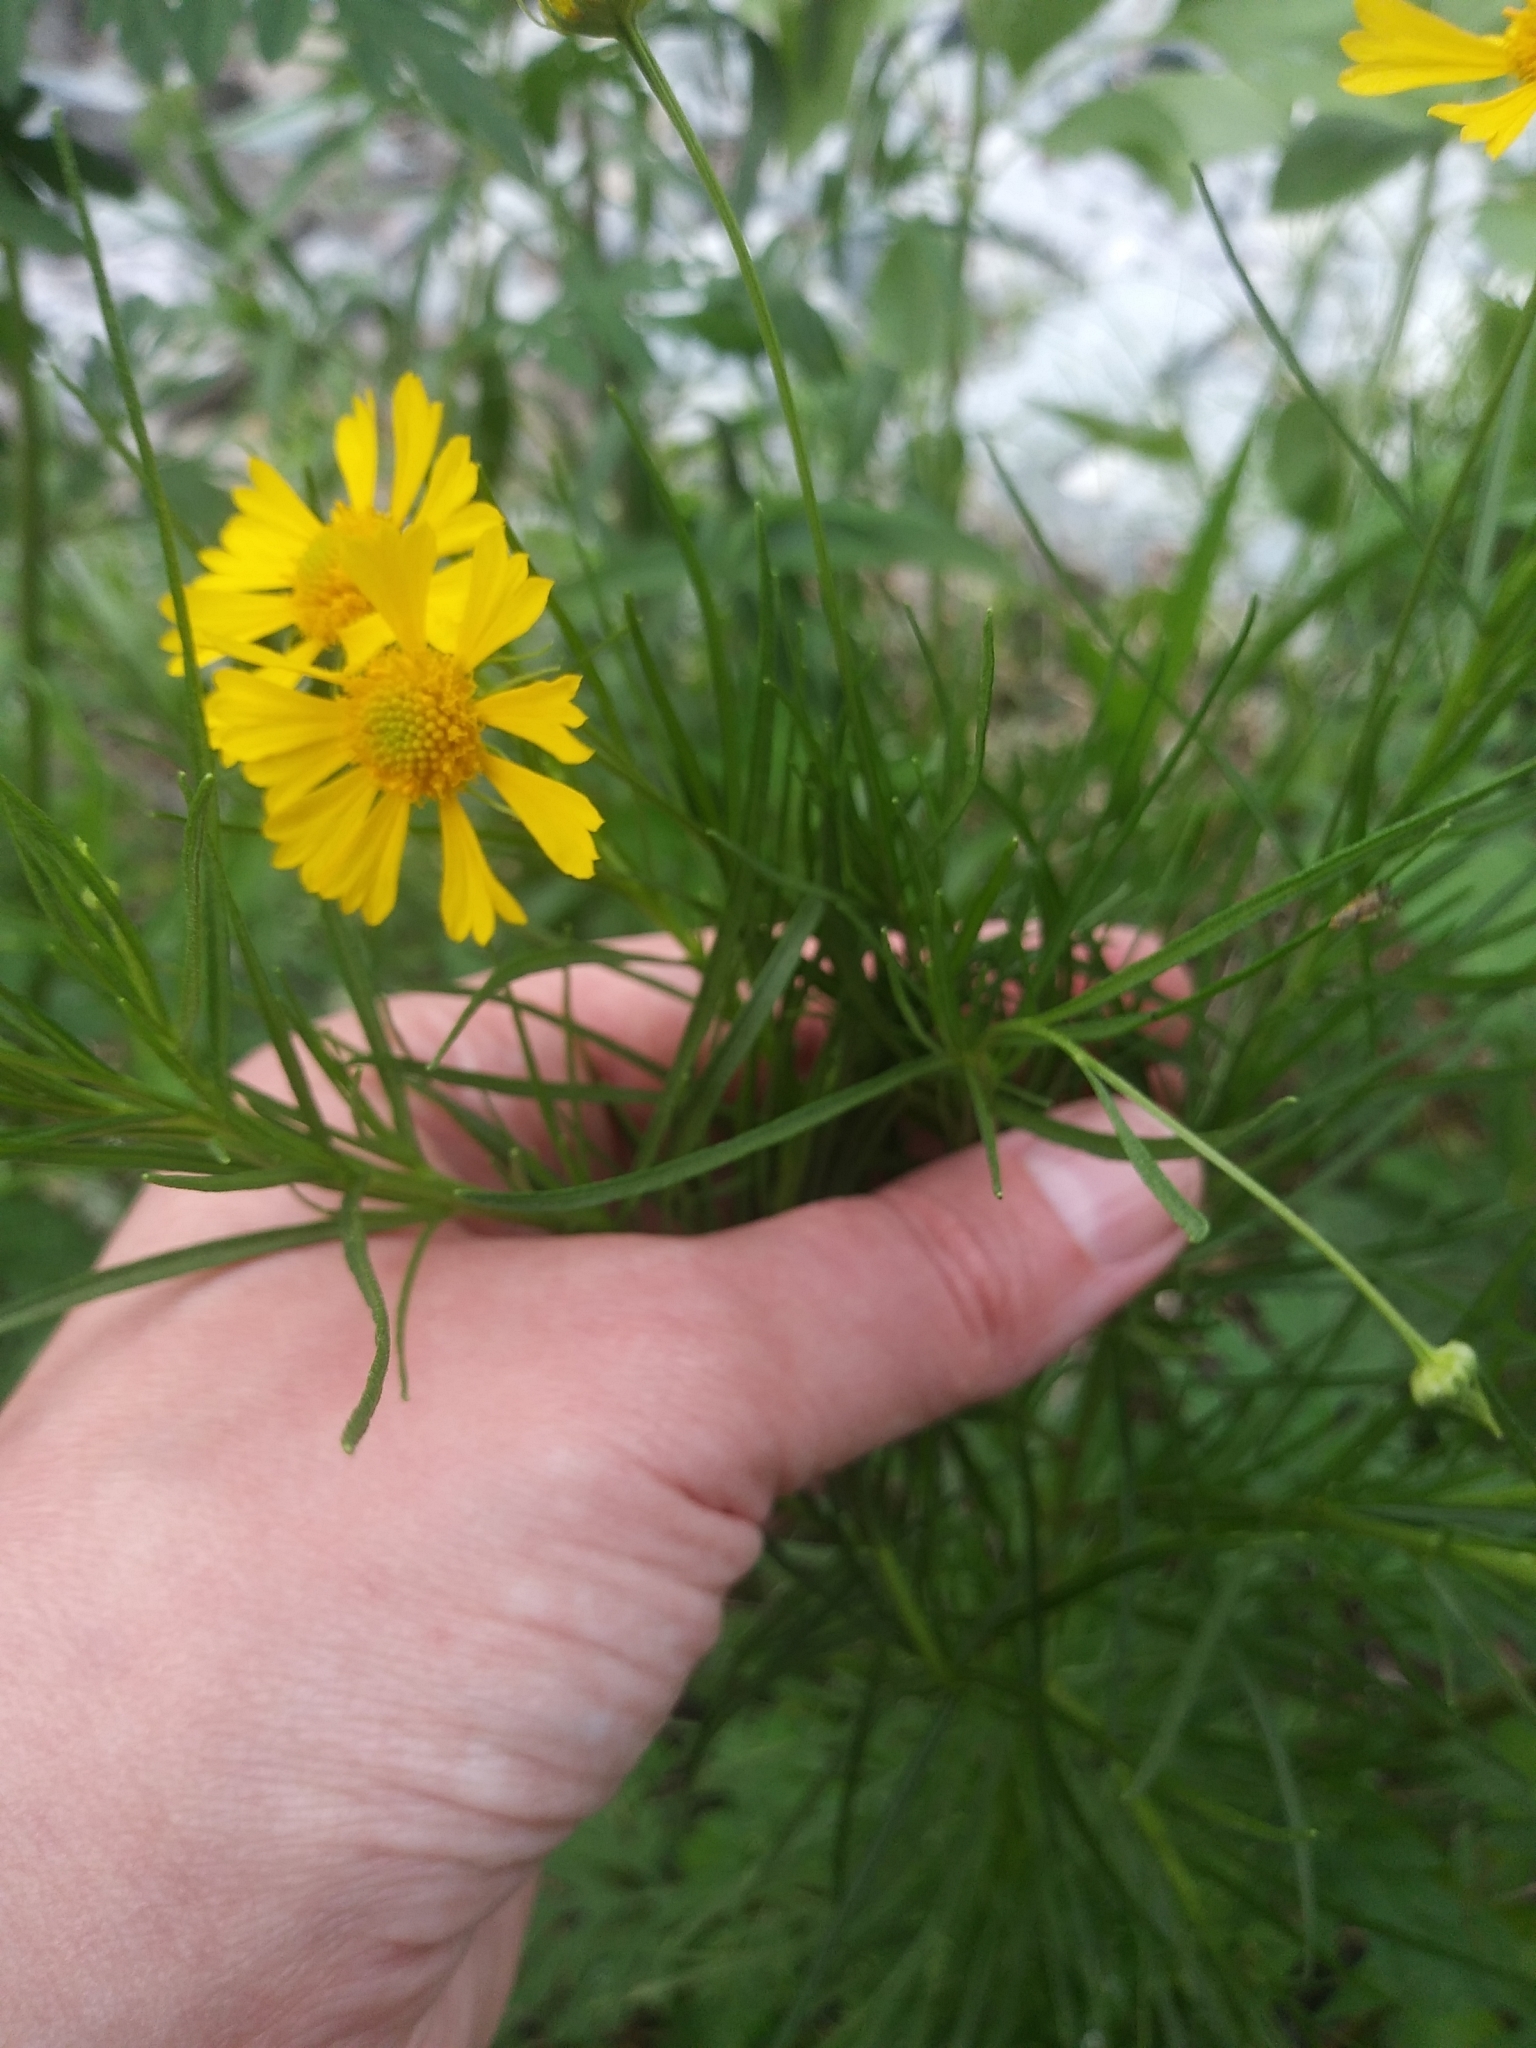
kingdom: Plantae
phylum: Tracheophyta
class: Magnoliopsida
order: Asterales
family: Asteraceae
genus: Helenium
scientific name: Helenium amarum
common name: Bitter sneezeweed
